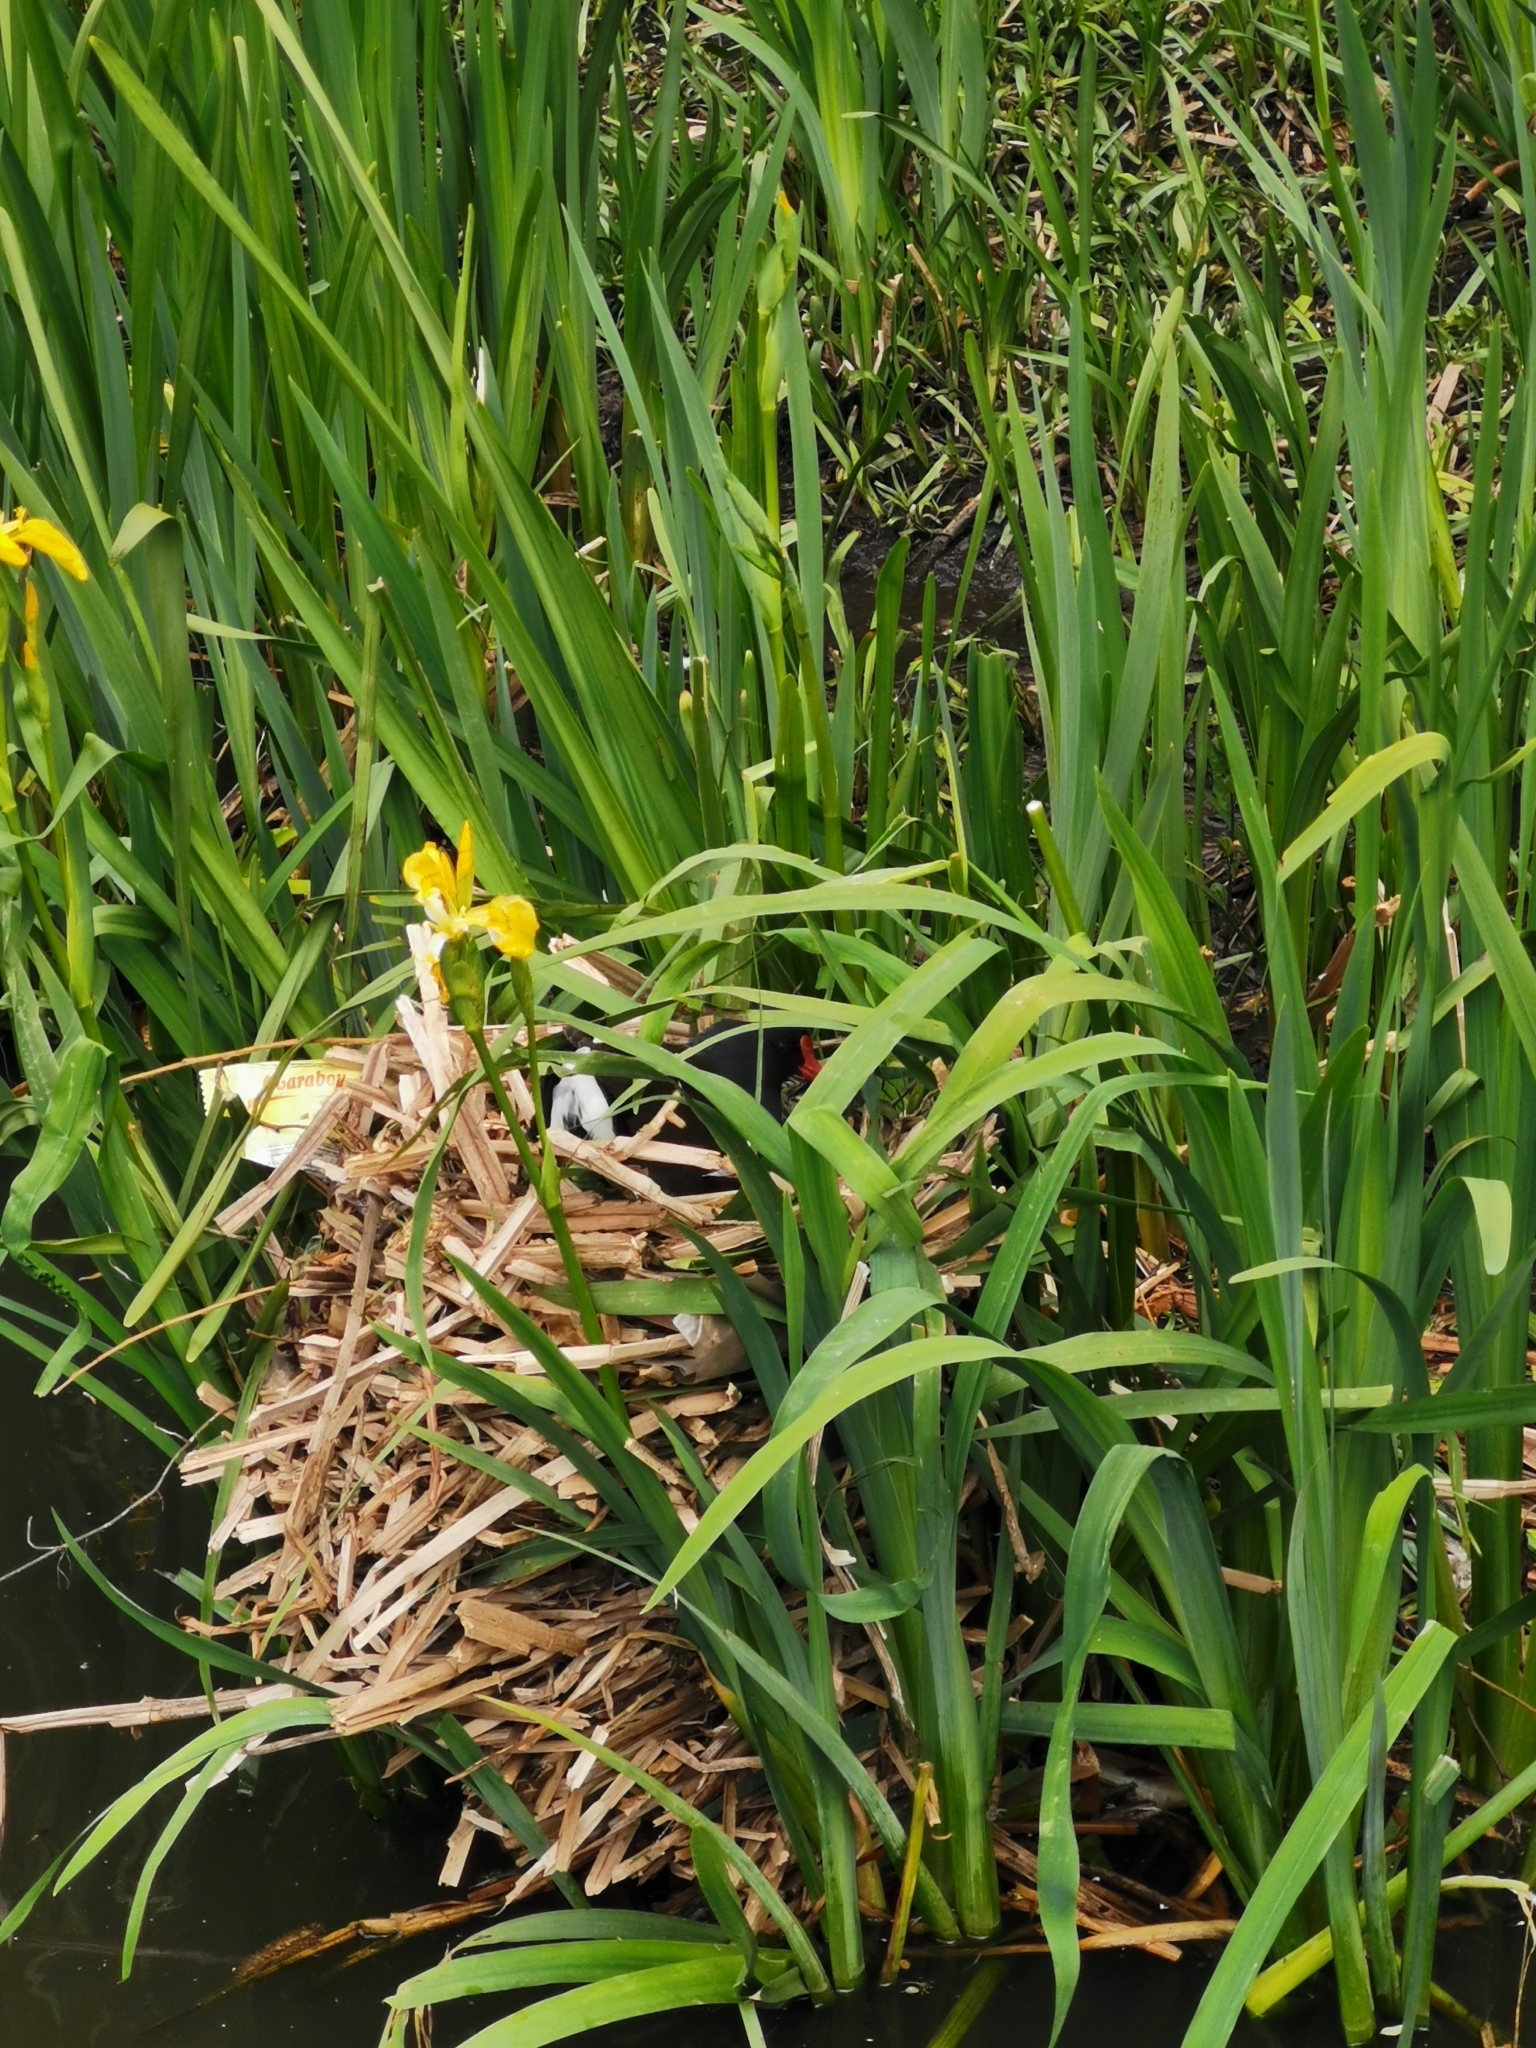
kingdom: Animalia
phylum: Chordata
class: Aves
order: Gruiformes
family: Rallidae
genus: Gallinula
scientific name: Gallinula chloropus
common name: Common moorhen
